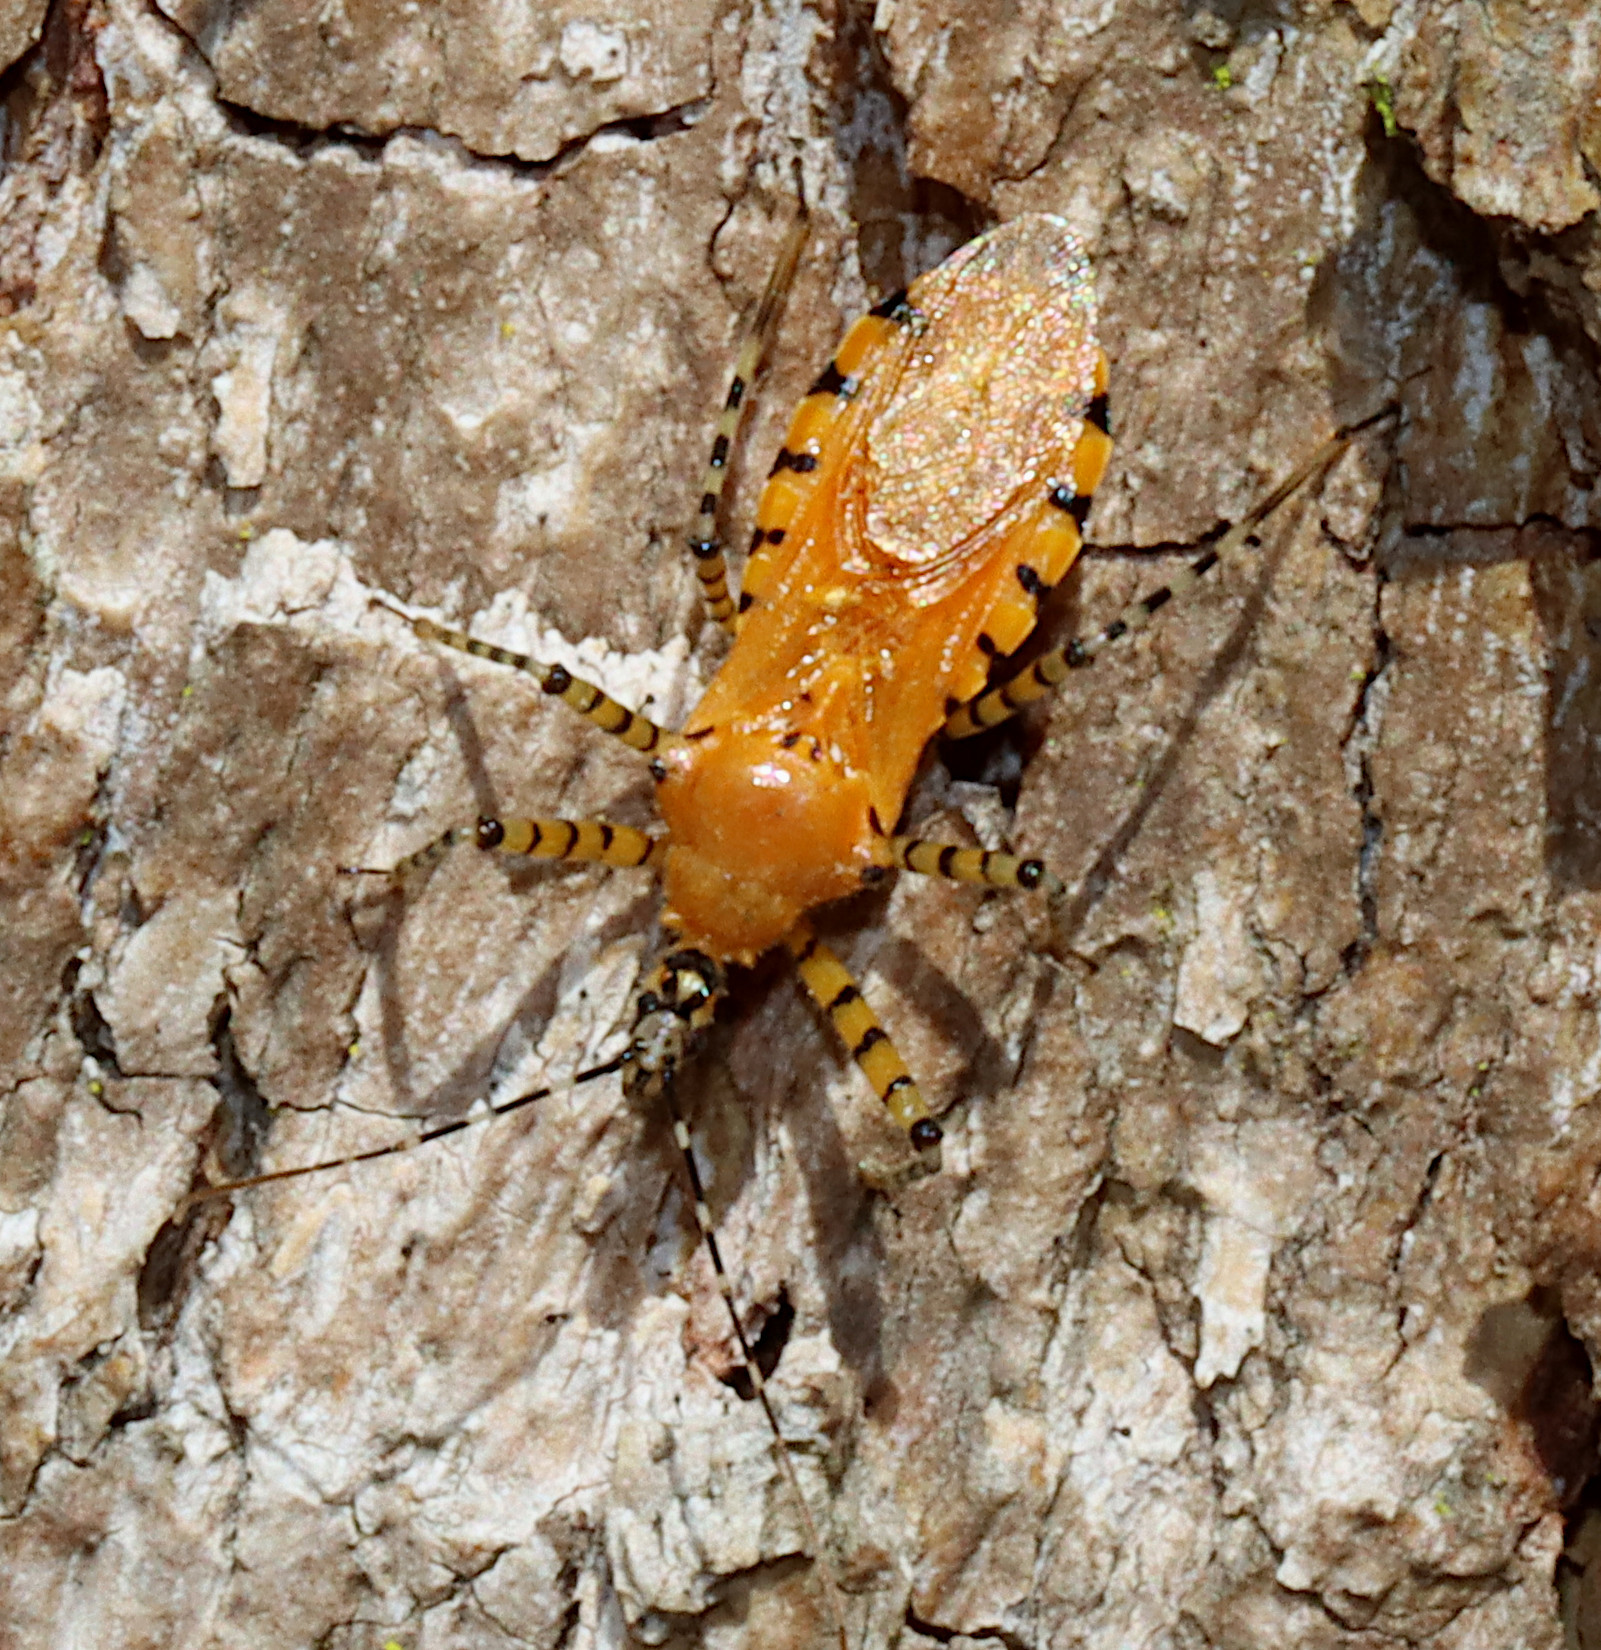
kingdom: Animalia
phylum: Arthropoda
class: Insecta
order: Hemiptera
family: Reduviidae
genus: Pselliopus
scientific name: Pselliopus barberi
